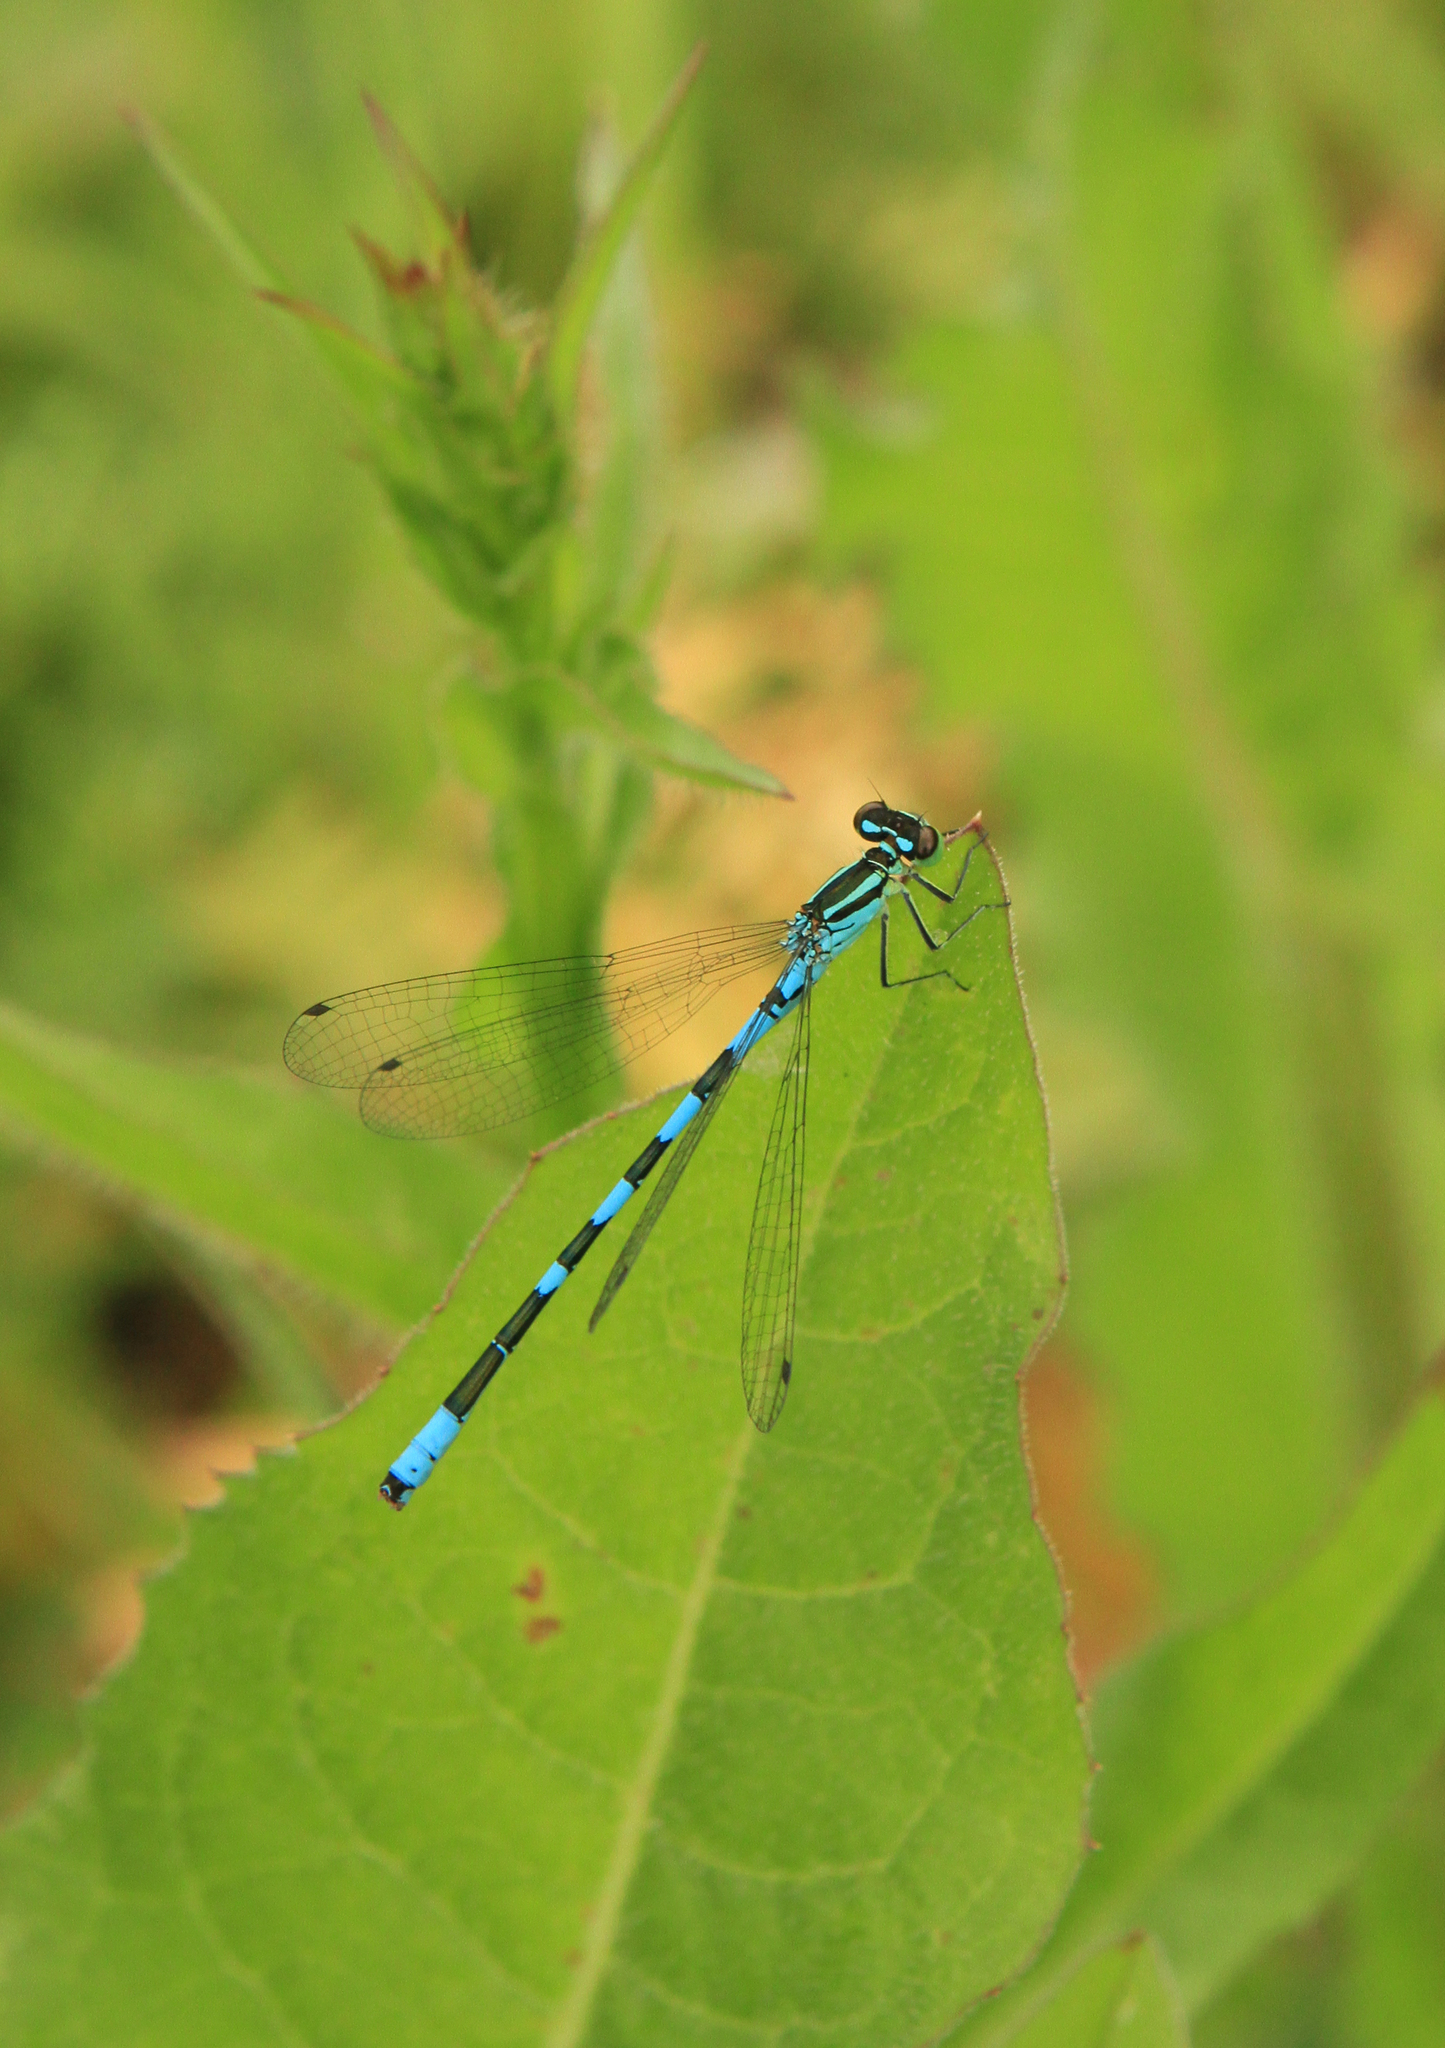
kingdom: Animalia
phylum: Arthropoda
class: Insecta
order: Odonata
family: Coenagrionidae
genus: Coenagrion
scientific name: Coenagrion hastulatum
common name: Spearhead bluet
